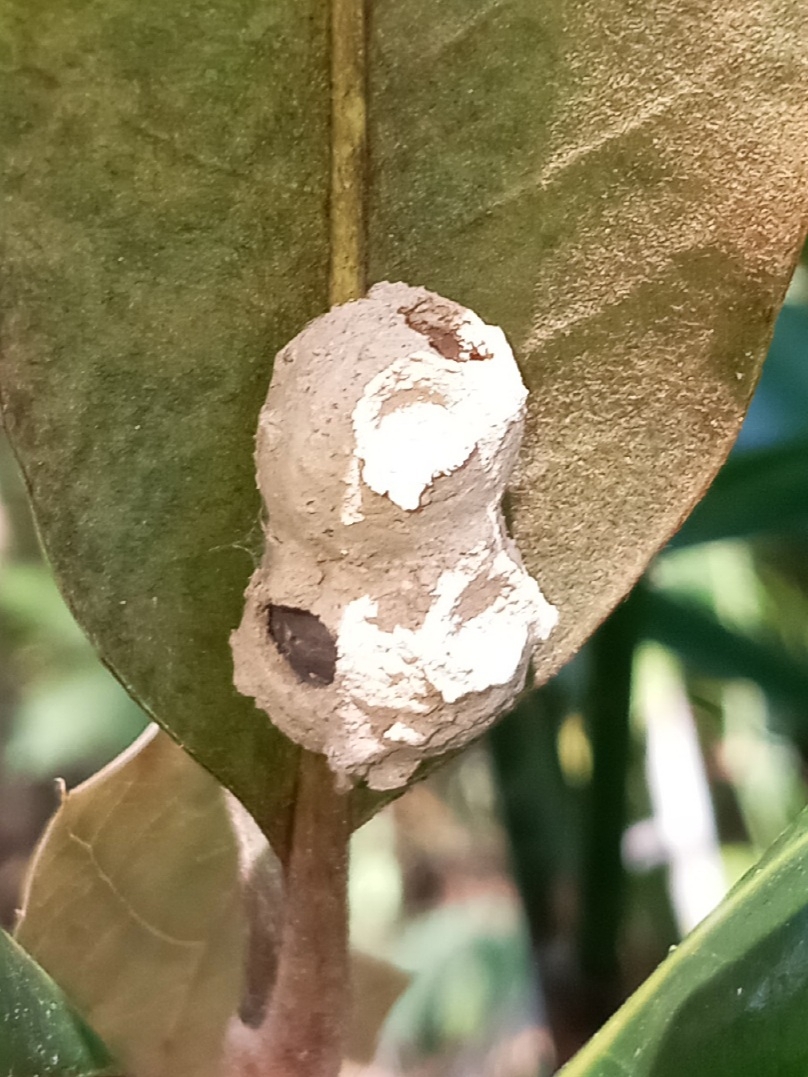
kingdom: Animalia
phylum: Arthropoda
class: Insecta
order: Hymenoptera
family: Vespidae
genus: Eumenes
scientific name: Eumenes fraternus
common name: Fraternal potter wasp
